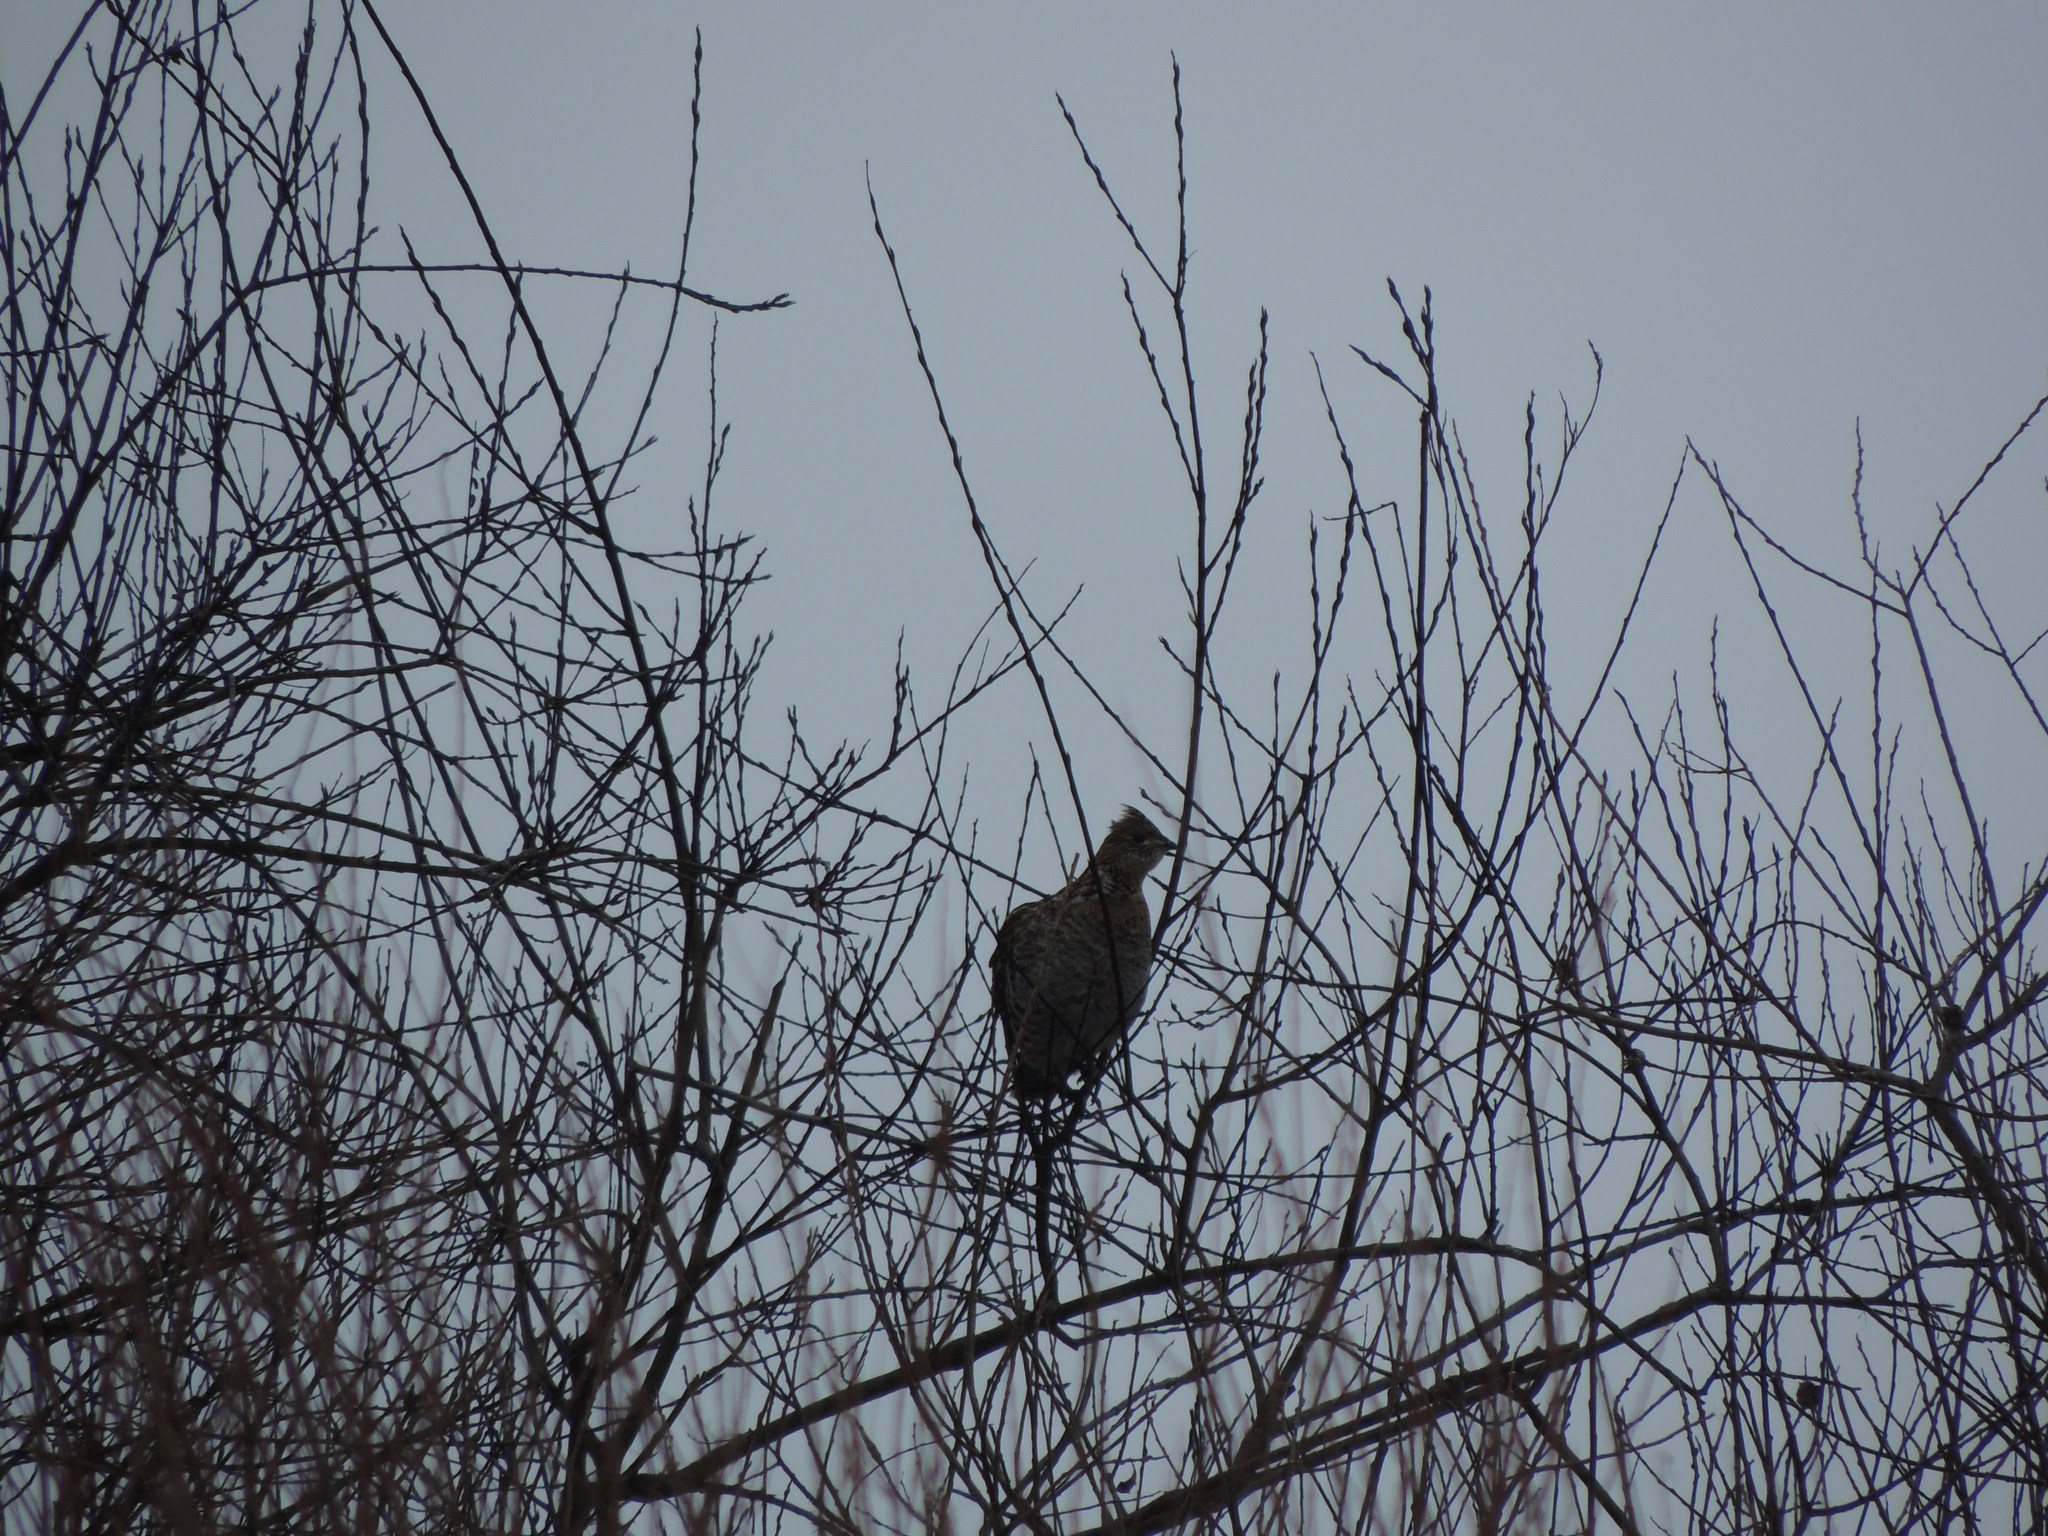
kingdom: Animalia
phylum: Chordata
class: Aves
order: Galliformes
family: Phasianidae
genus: Bonasa
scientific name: Bonasa umbellus
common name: Ruffed grouse
